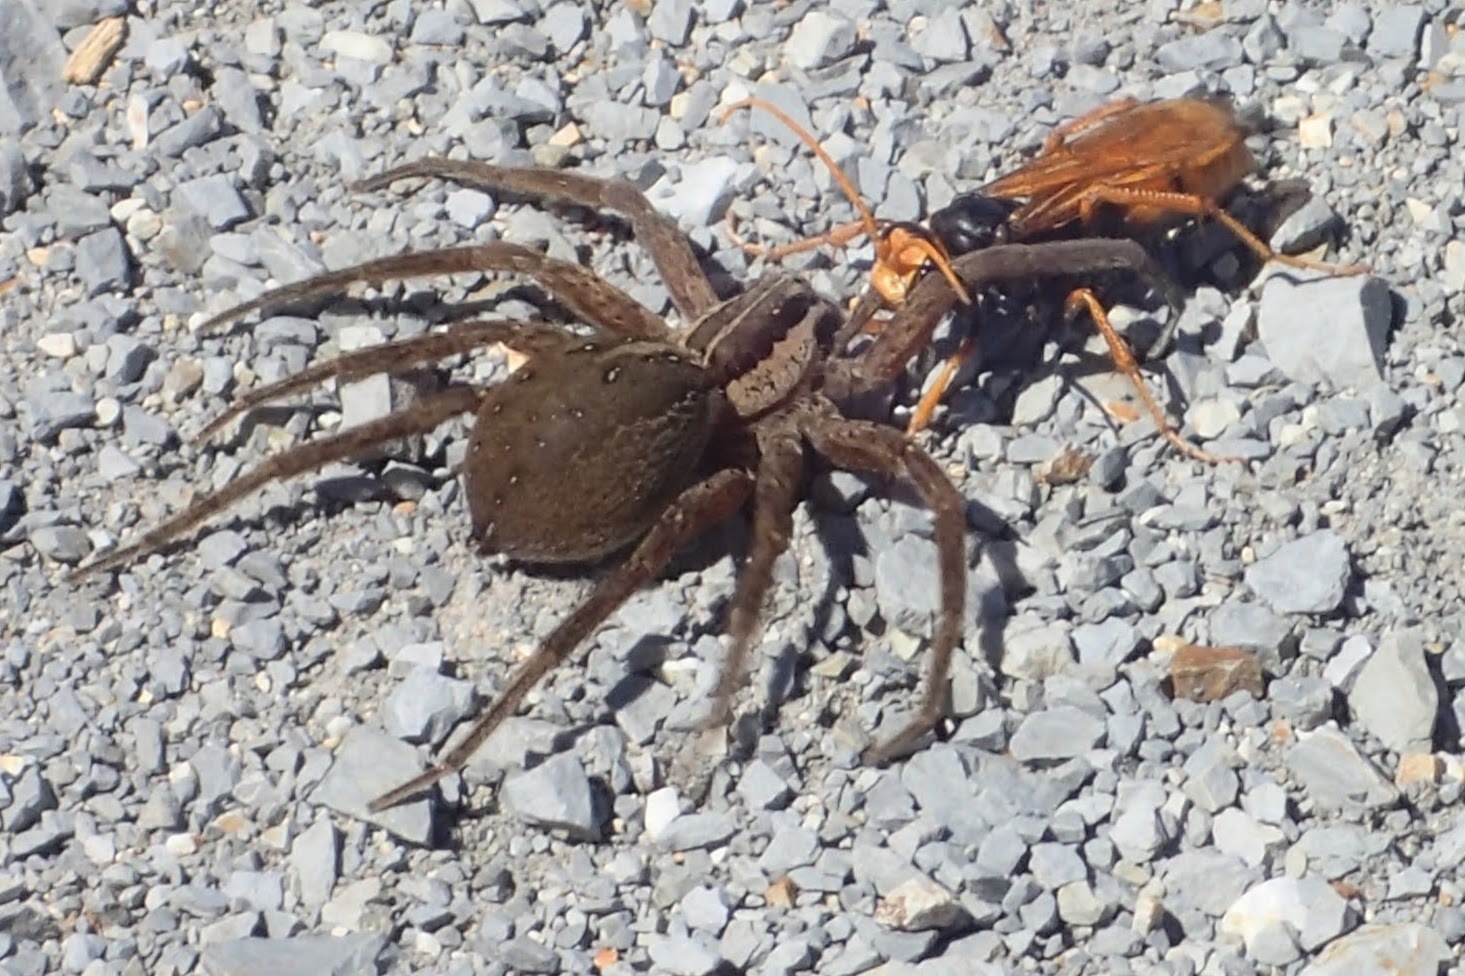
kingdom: Animalia
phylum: Arthropoda
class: Arachnida
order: Araneae
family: Pisauridae
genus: Dolomedes
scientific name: Dolomedes minor
